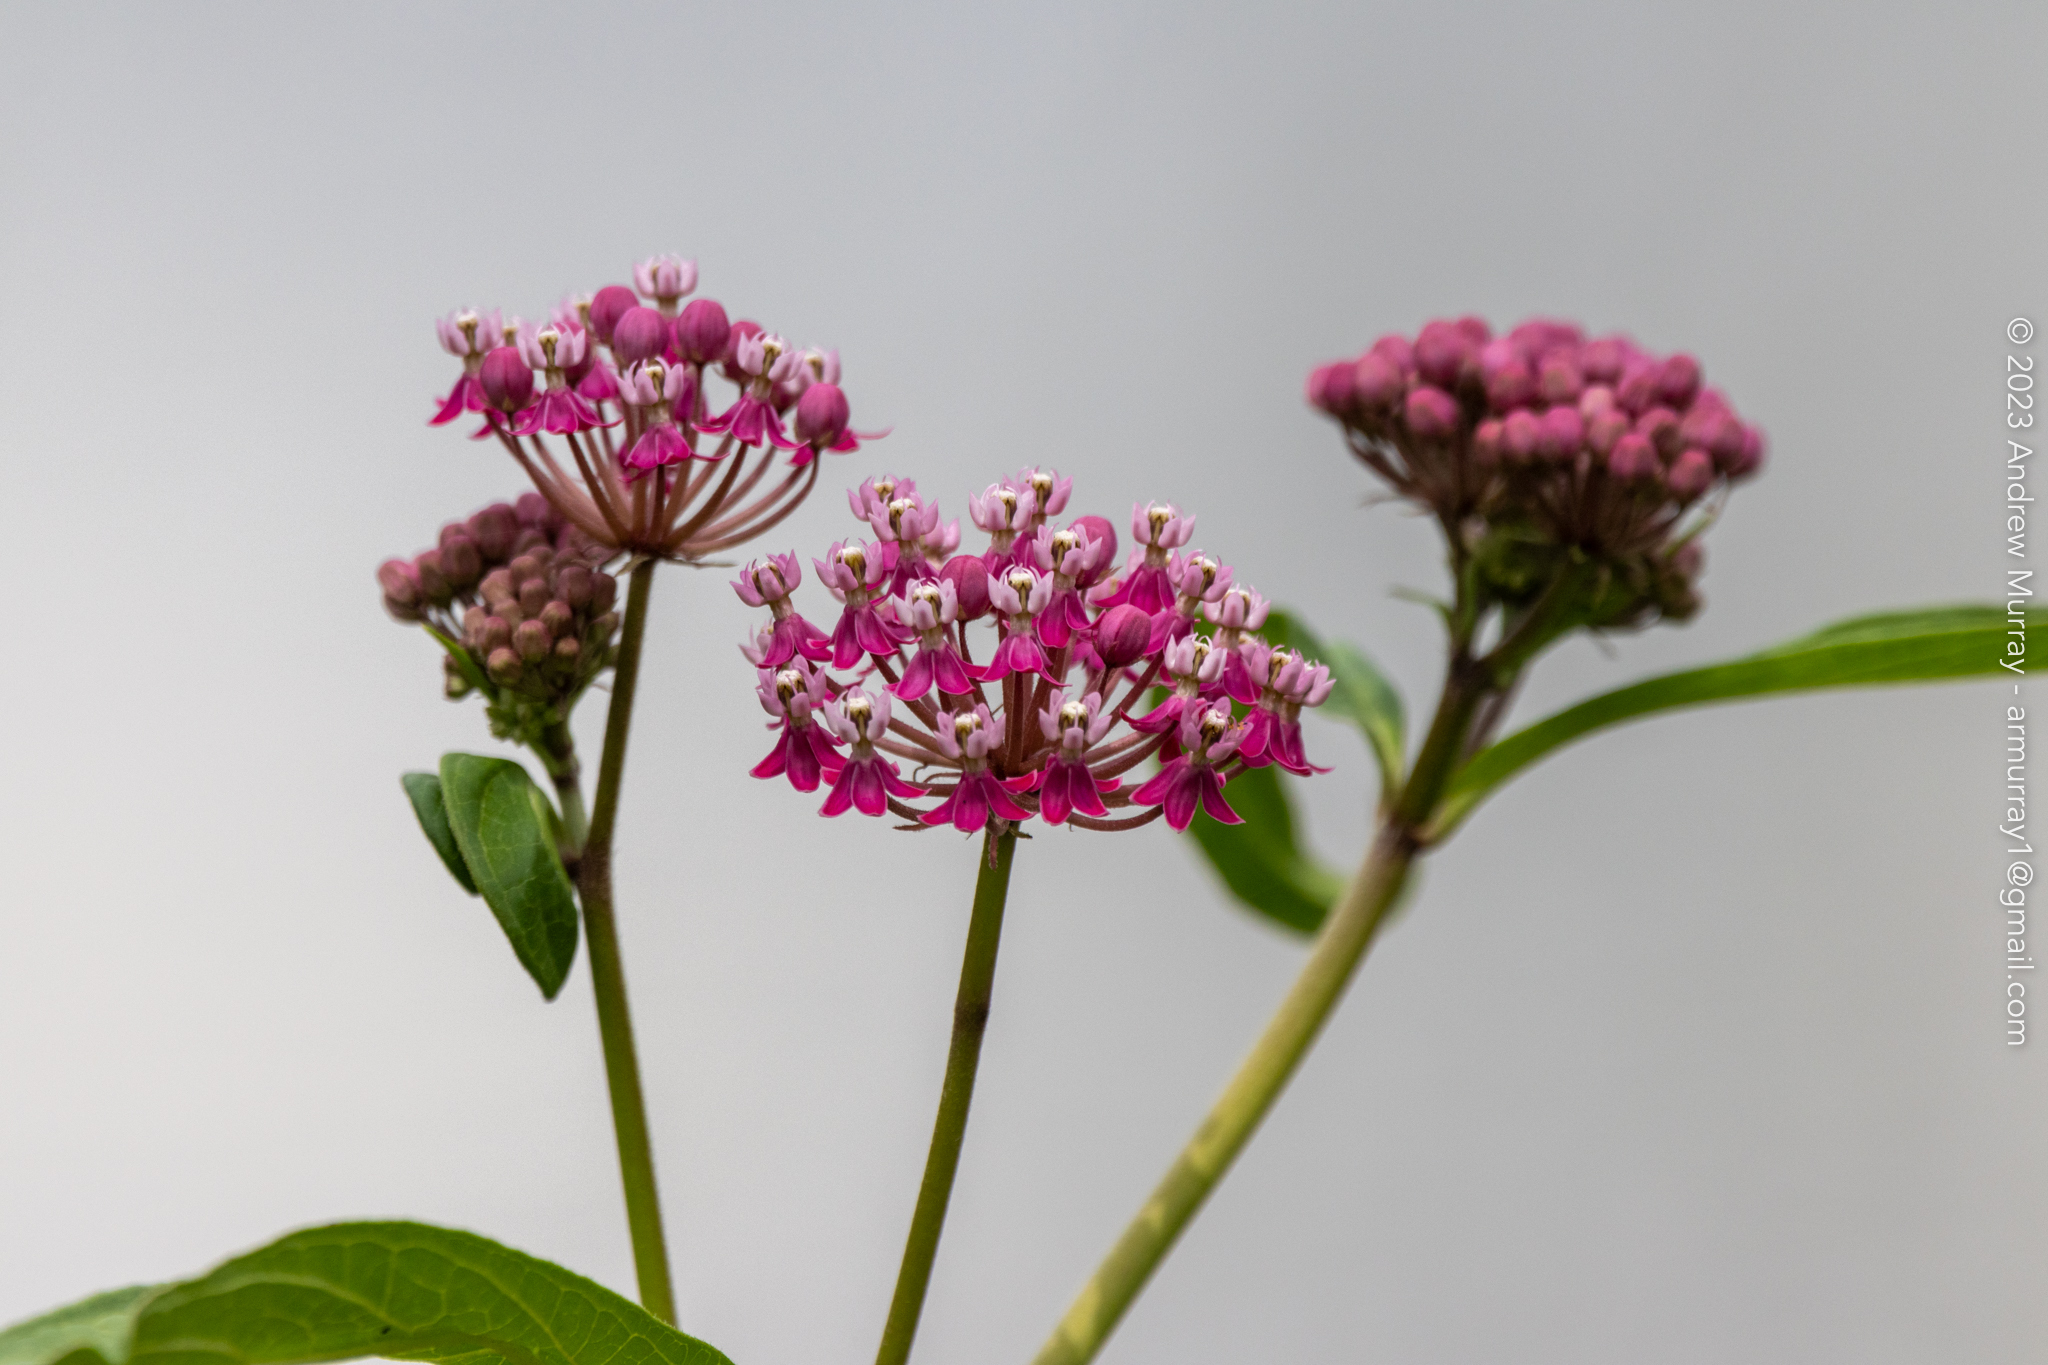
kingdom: Plantae
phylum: Tracheophyta
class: Magnoliopsida
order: Gentianales
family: Apocynaceae
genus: Asclepias
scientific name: Asclepias incarnata
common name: Swamp milkweed
